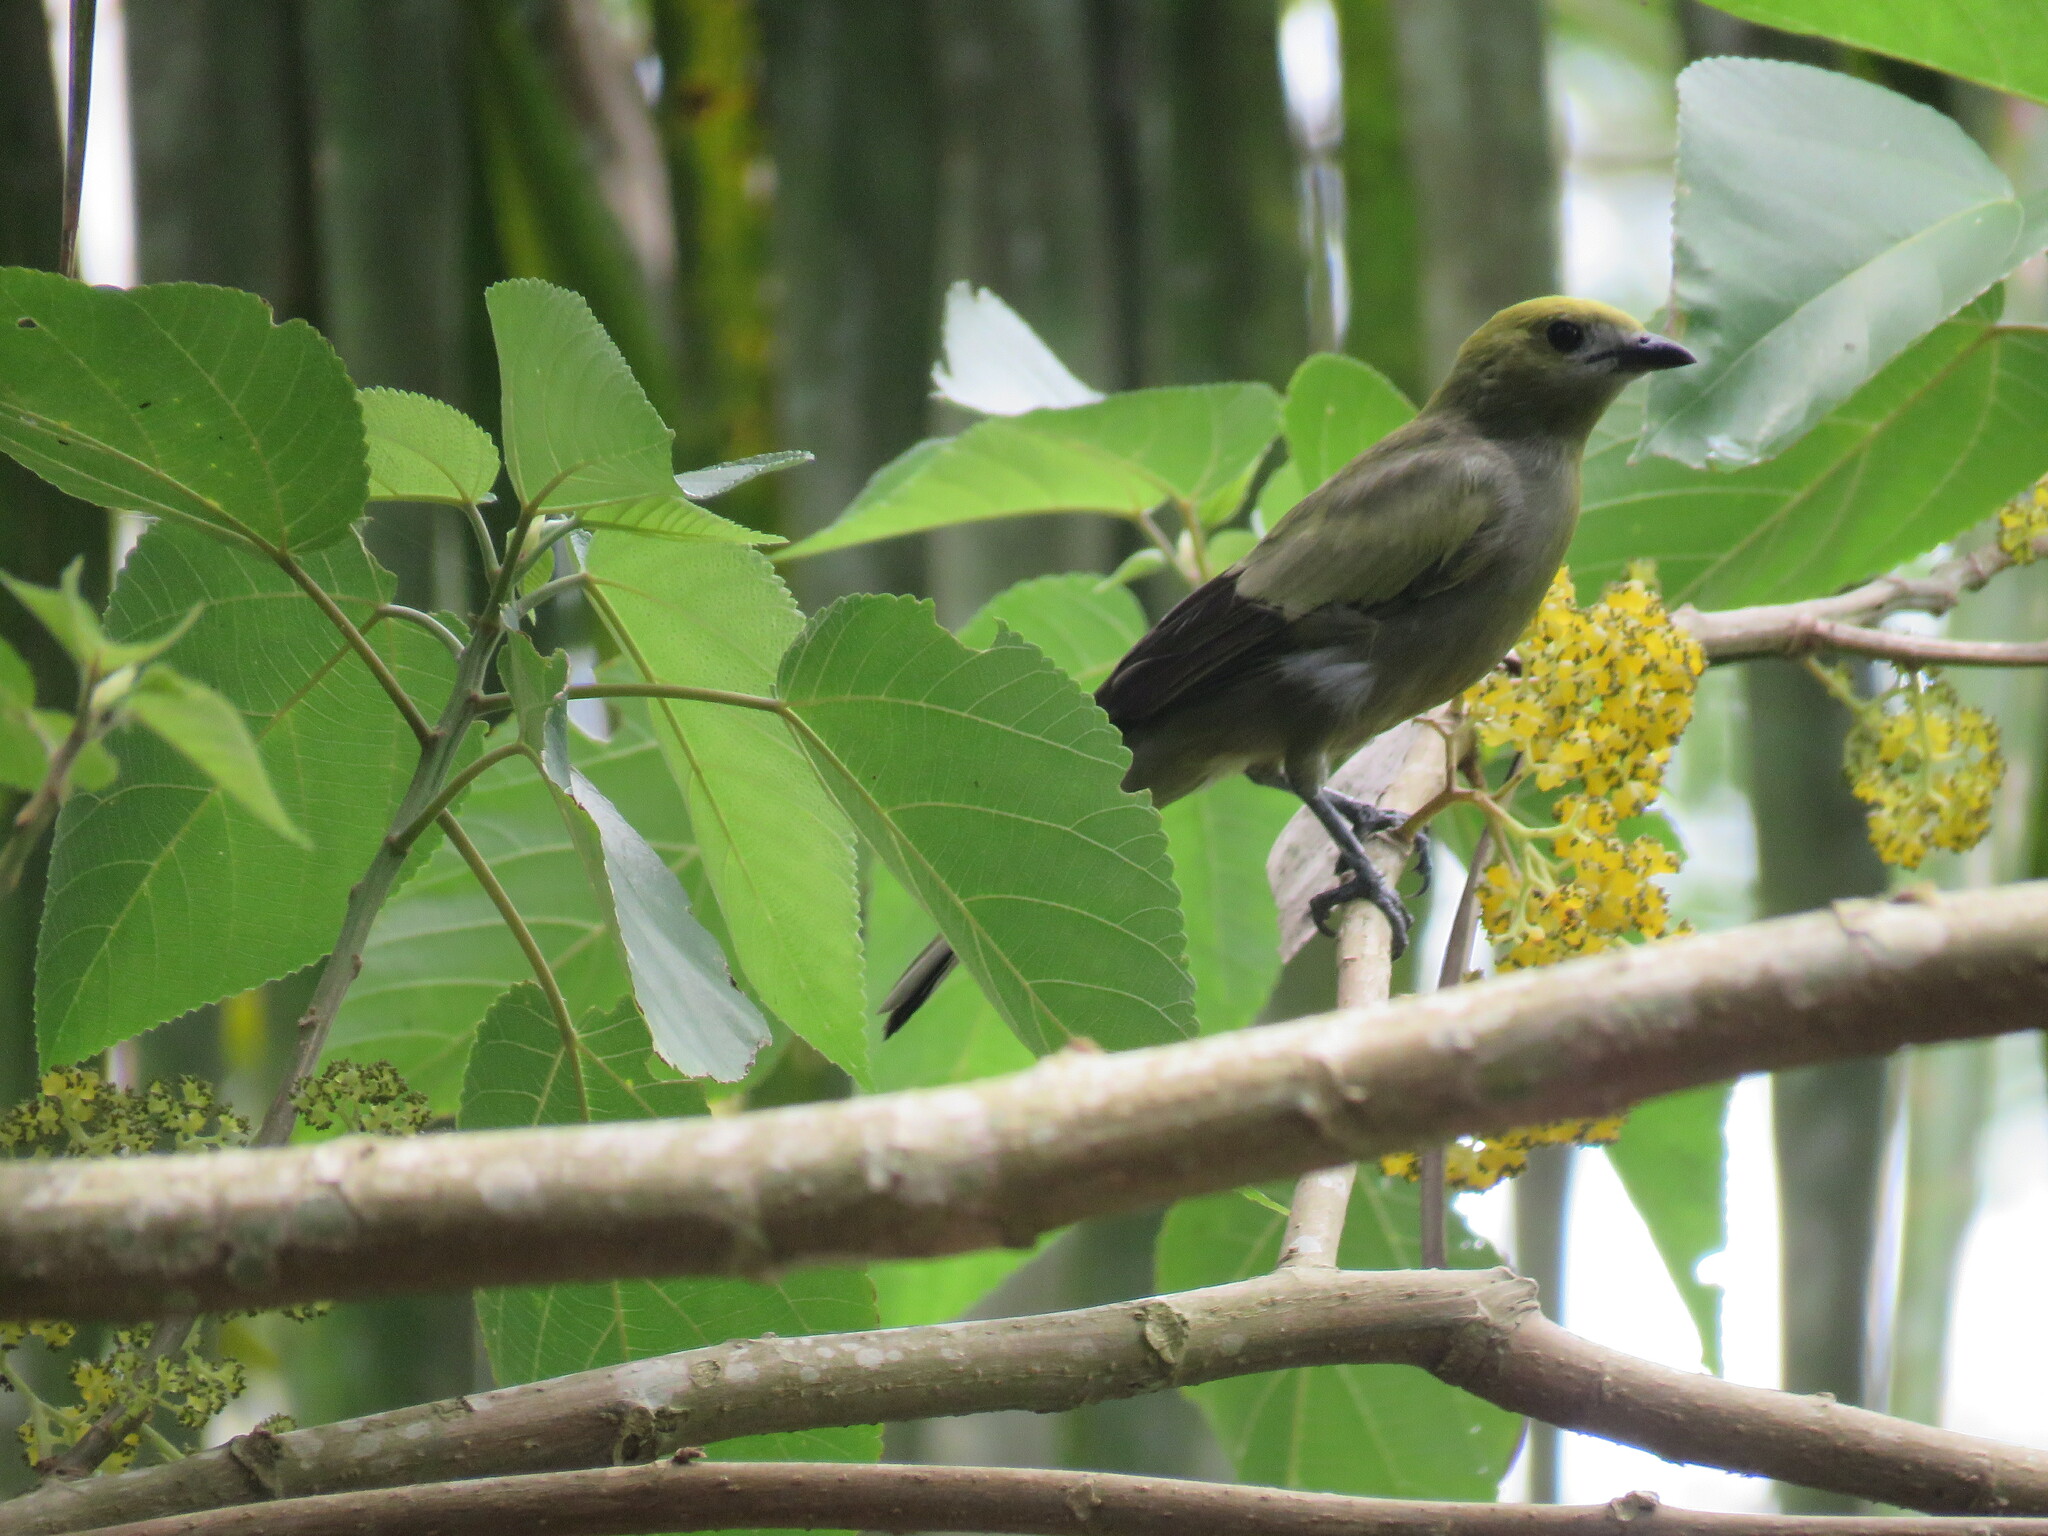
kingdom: Animalia
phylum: Chordata
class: Aves
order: Passeriformes
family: Thraupidae
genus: Thraupis
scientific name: Thraupis palmarum
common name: Palm tanager
